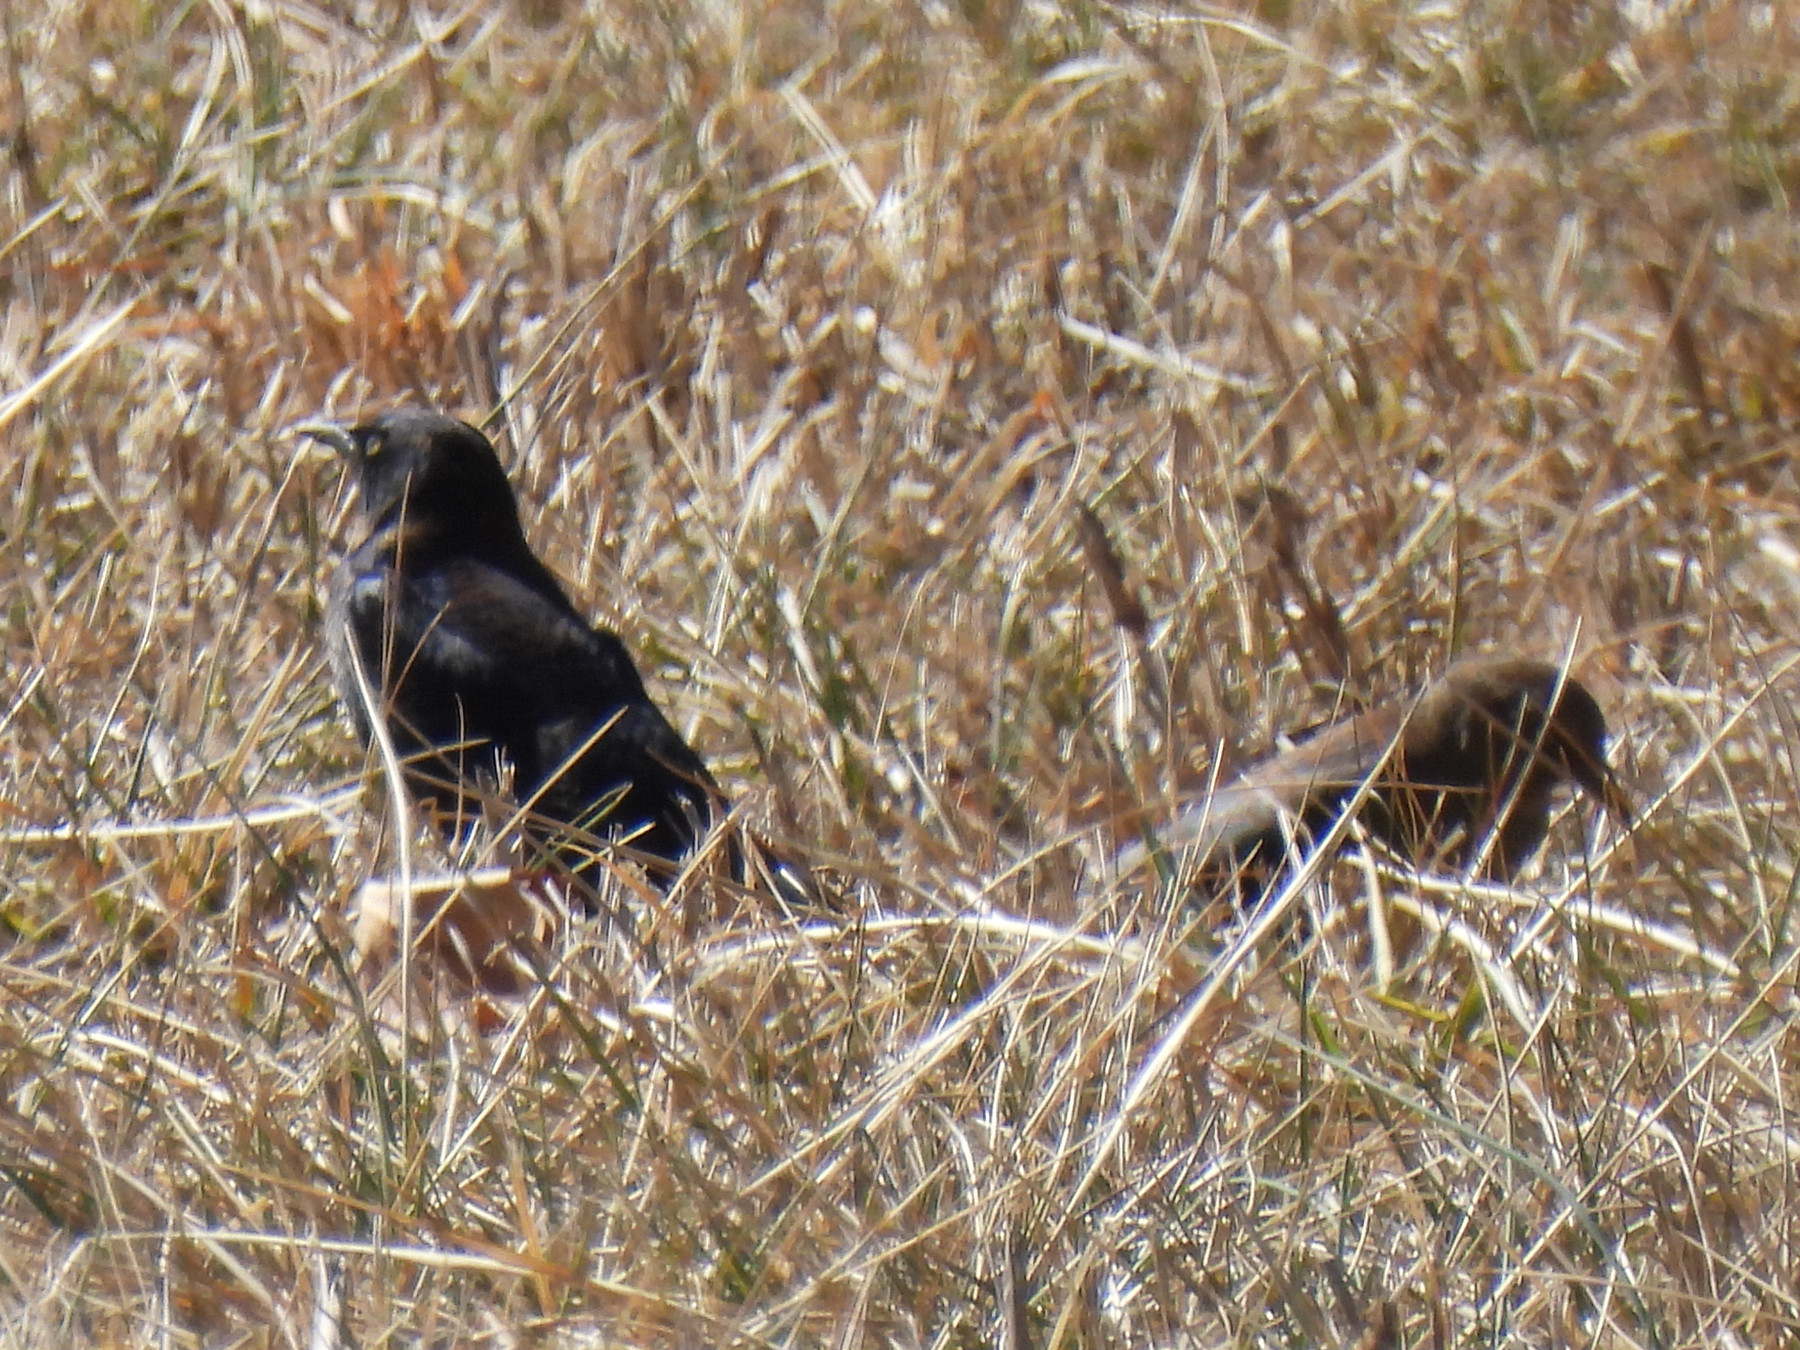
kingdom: Animalia
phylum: Chordata
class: Aves
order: Passeriformes
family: Icteridae
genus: Euphagus
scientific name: Euphagus cyanocephalus
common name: Brewer's blackbird
